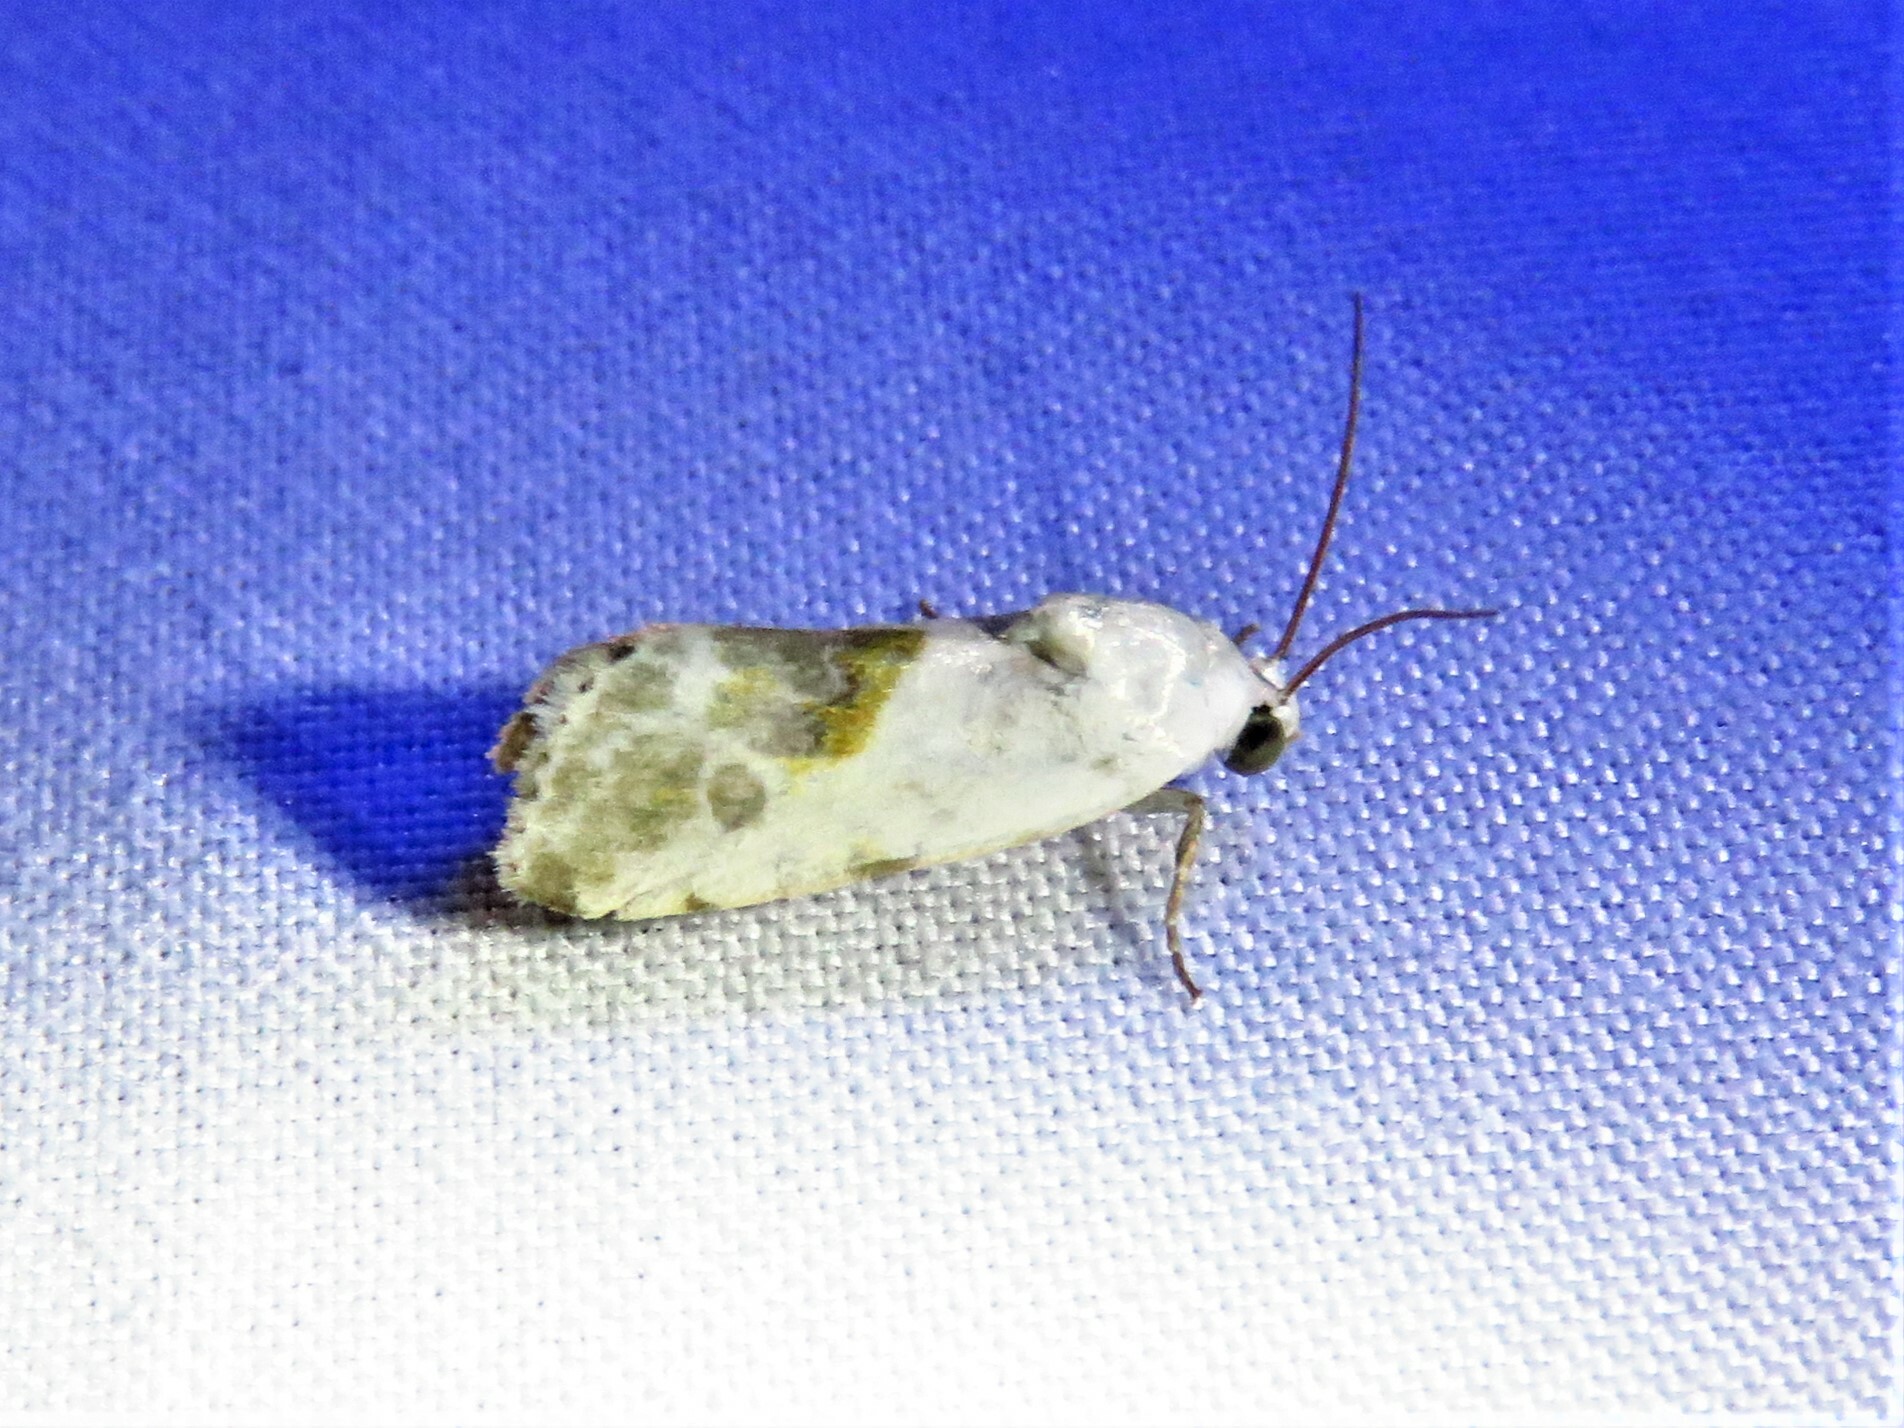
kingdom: Animalia
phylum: Arthropoda
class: Insecta
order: Lepidoptera
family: Noctuidae
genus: Acontia
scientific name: Acontia candefacta
